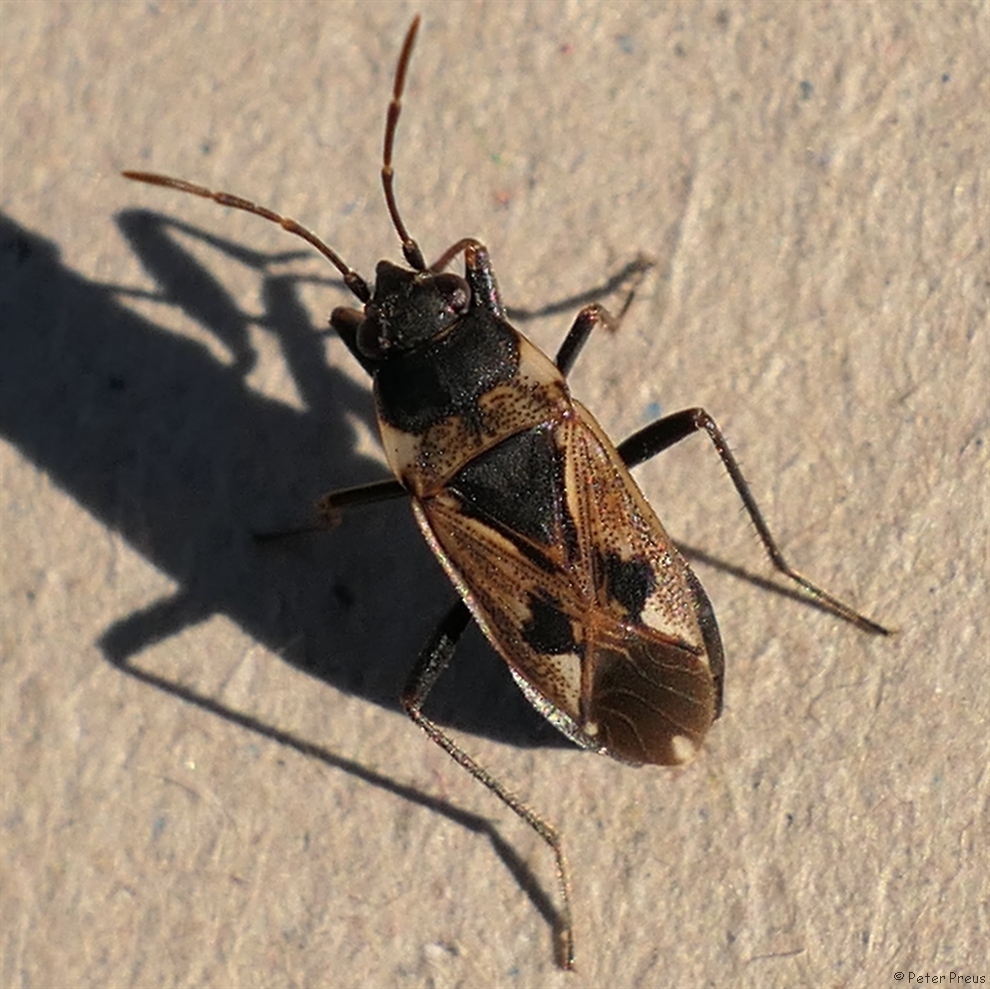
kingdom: Animalia
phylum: Arthropoda
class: Insecta
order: Hemiptera
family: Rhyparochromidae
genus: Rhyparochromus
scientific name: Rhyparochromus vulgaris
